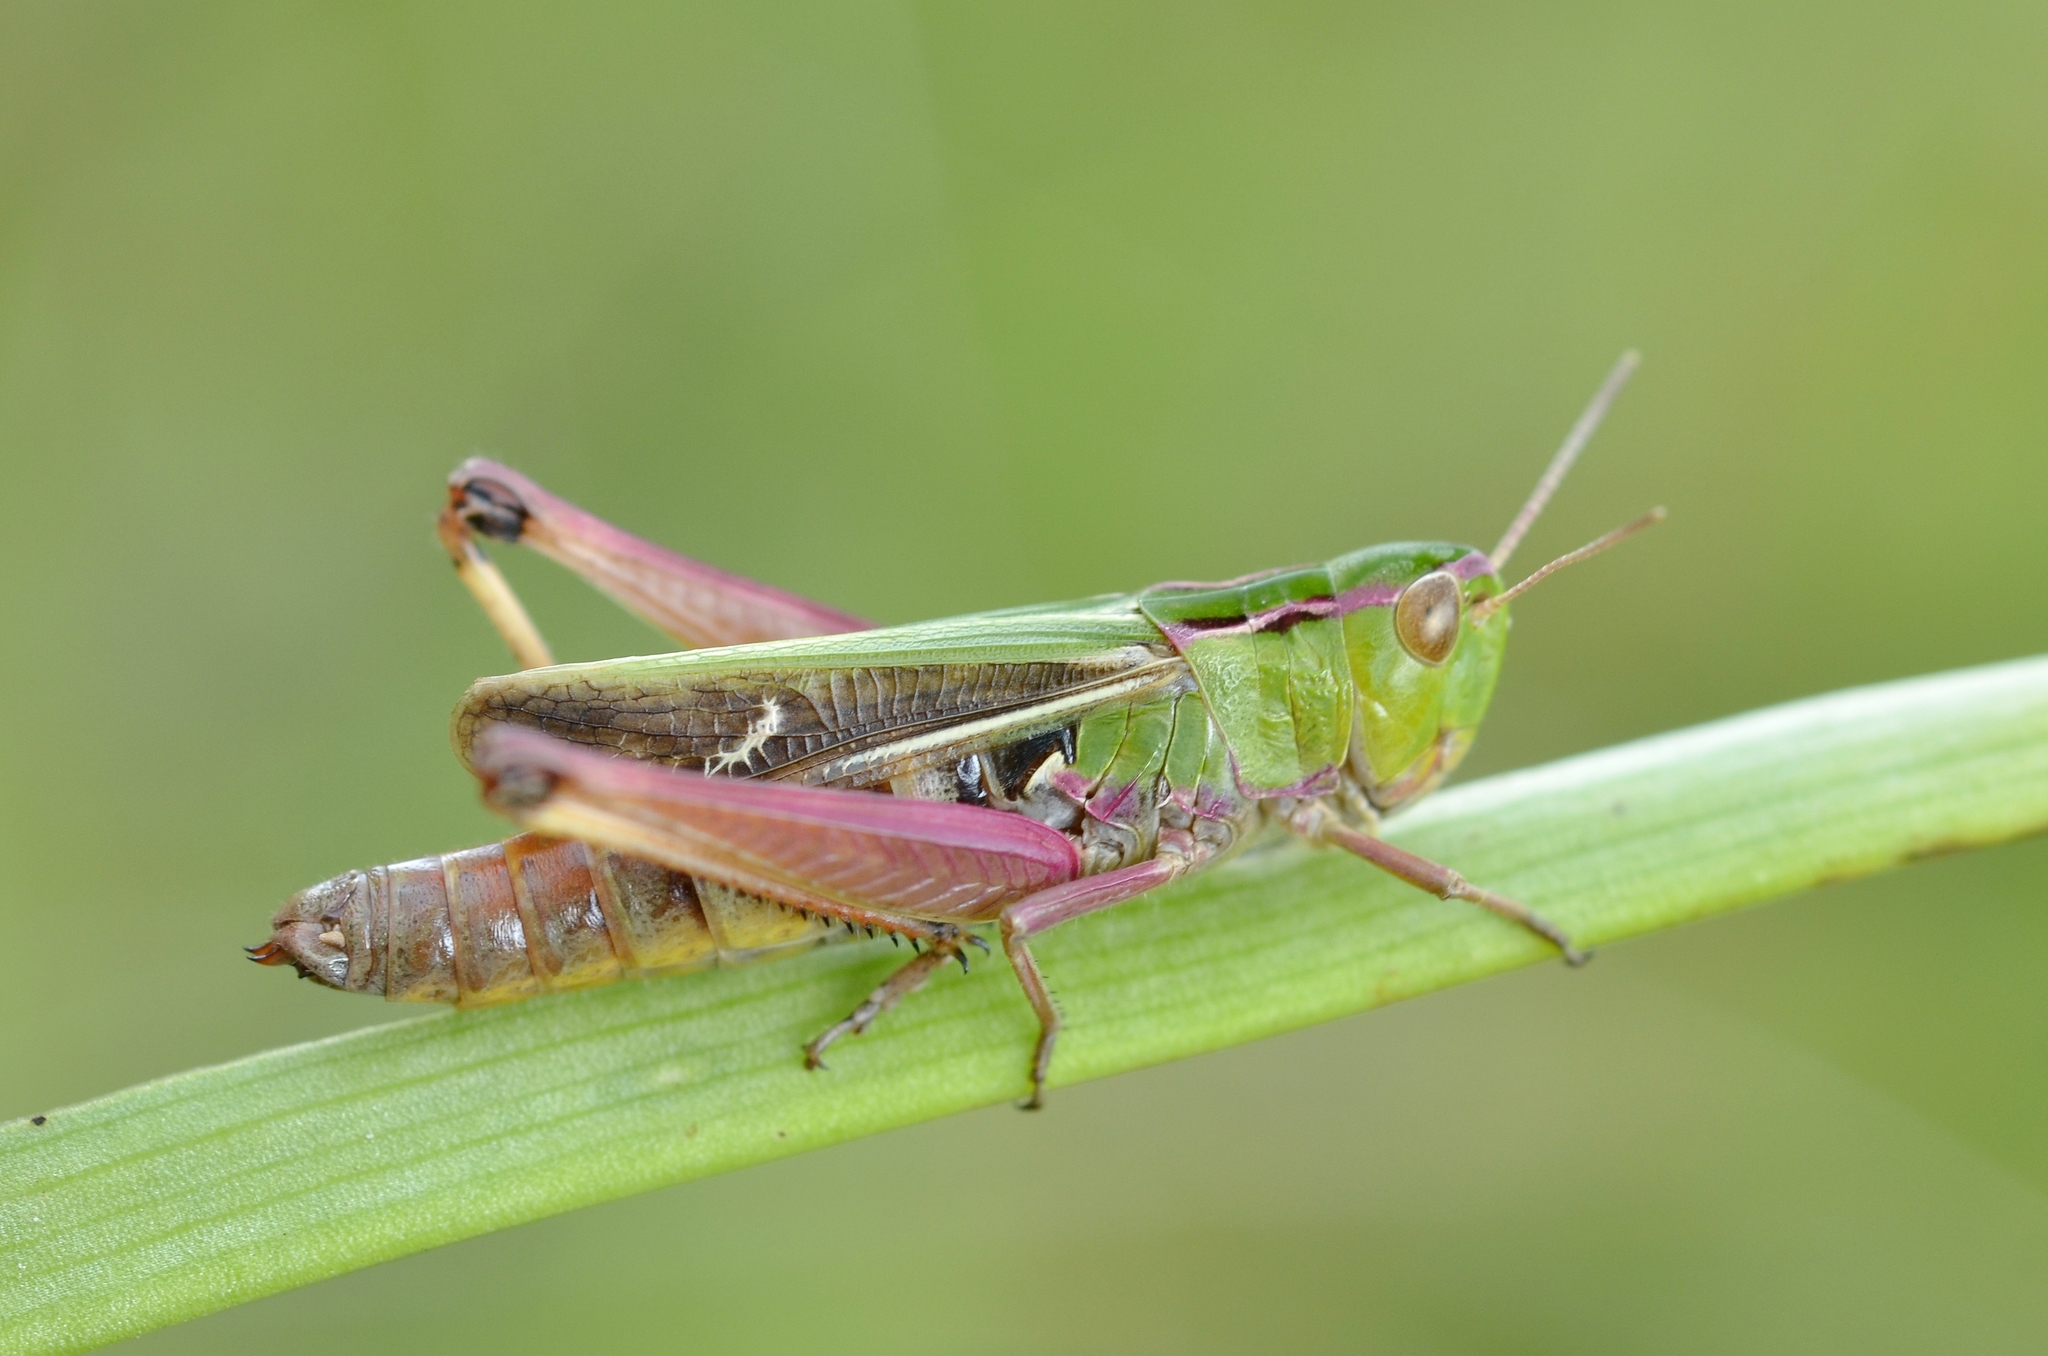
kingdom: Animalia
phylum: Arthropoda
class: Insecta
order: Orthoptera
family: Acrididae
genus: Stenobothrus
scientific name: Stenobothrus lineatus
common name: Stripe-winged grasshopper
